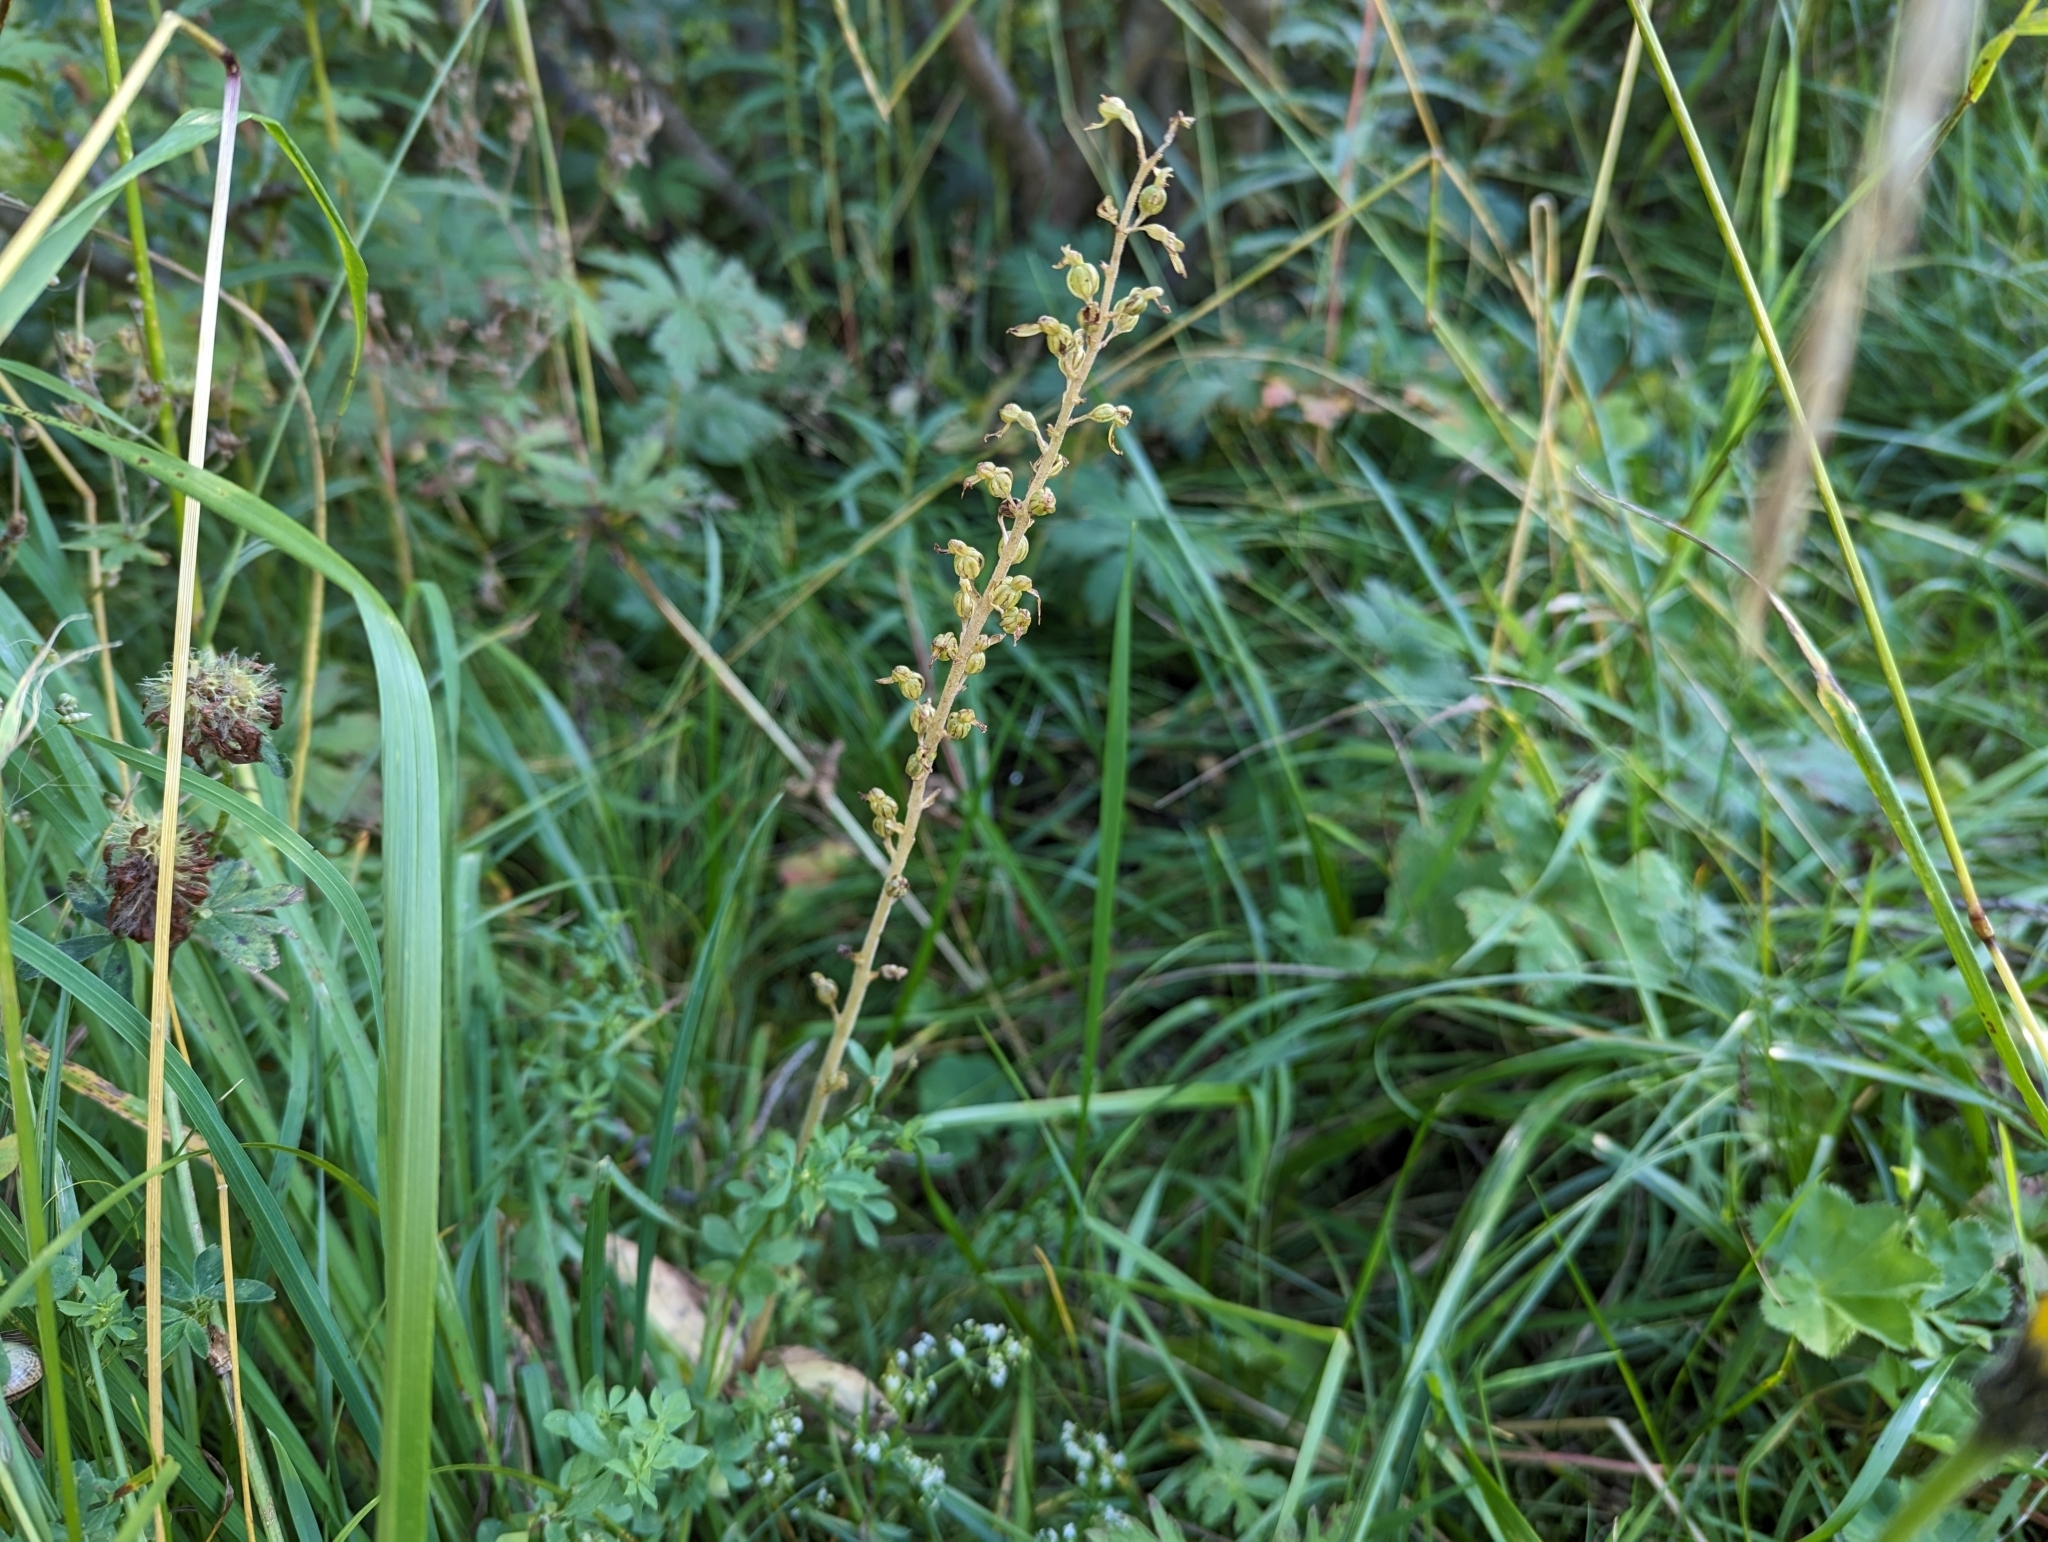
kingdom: Plantae
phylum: Tracheophyta
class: Liliopsida
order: Asparagales
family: Orchidaceae
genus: Neottia
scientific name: Neottia ovata
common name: Common twayblade
